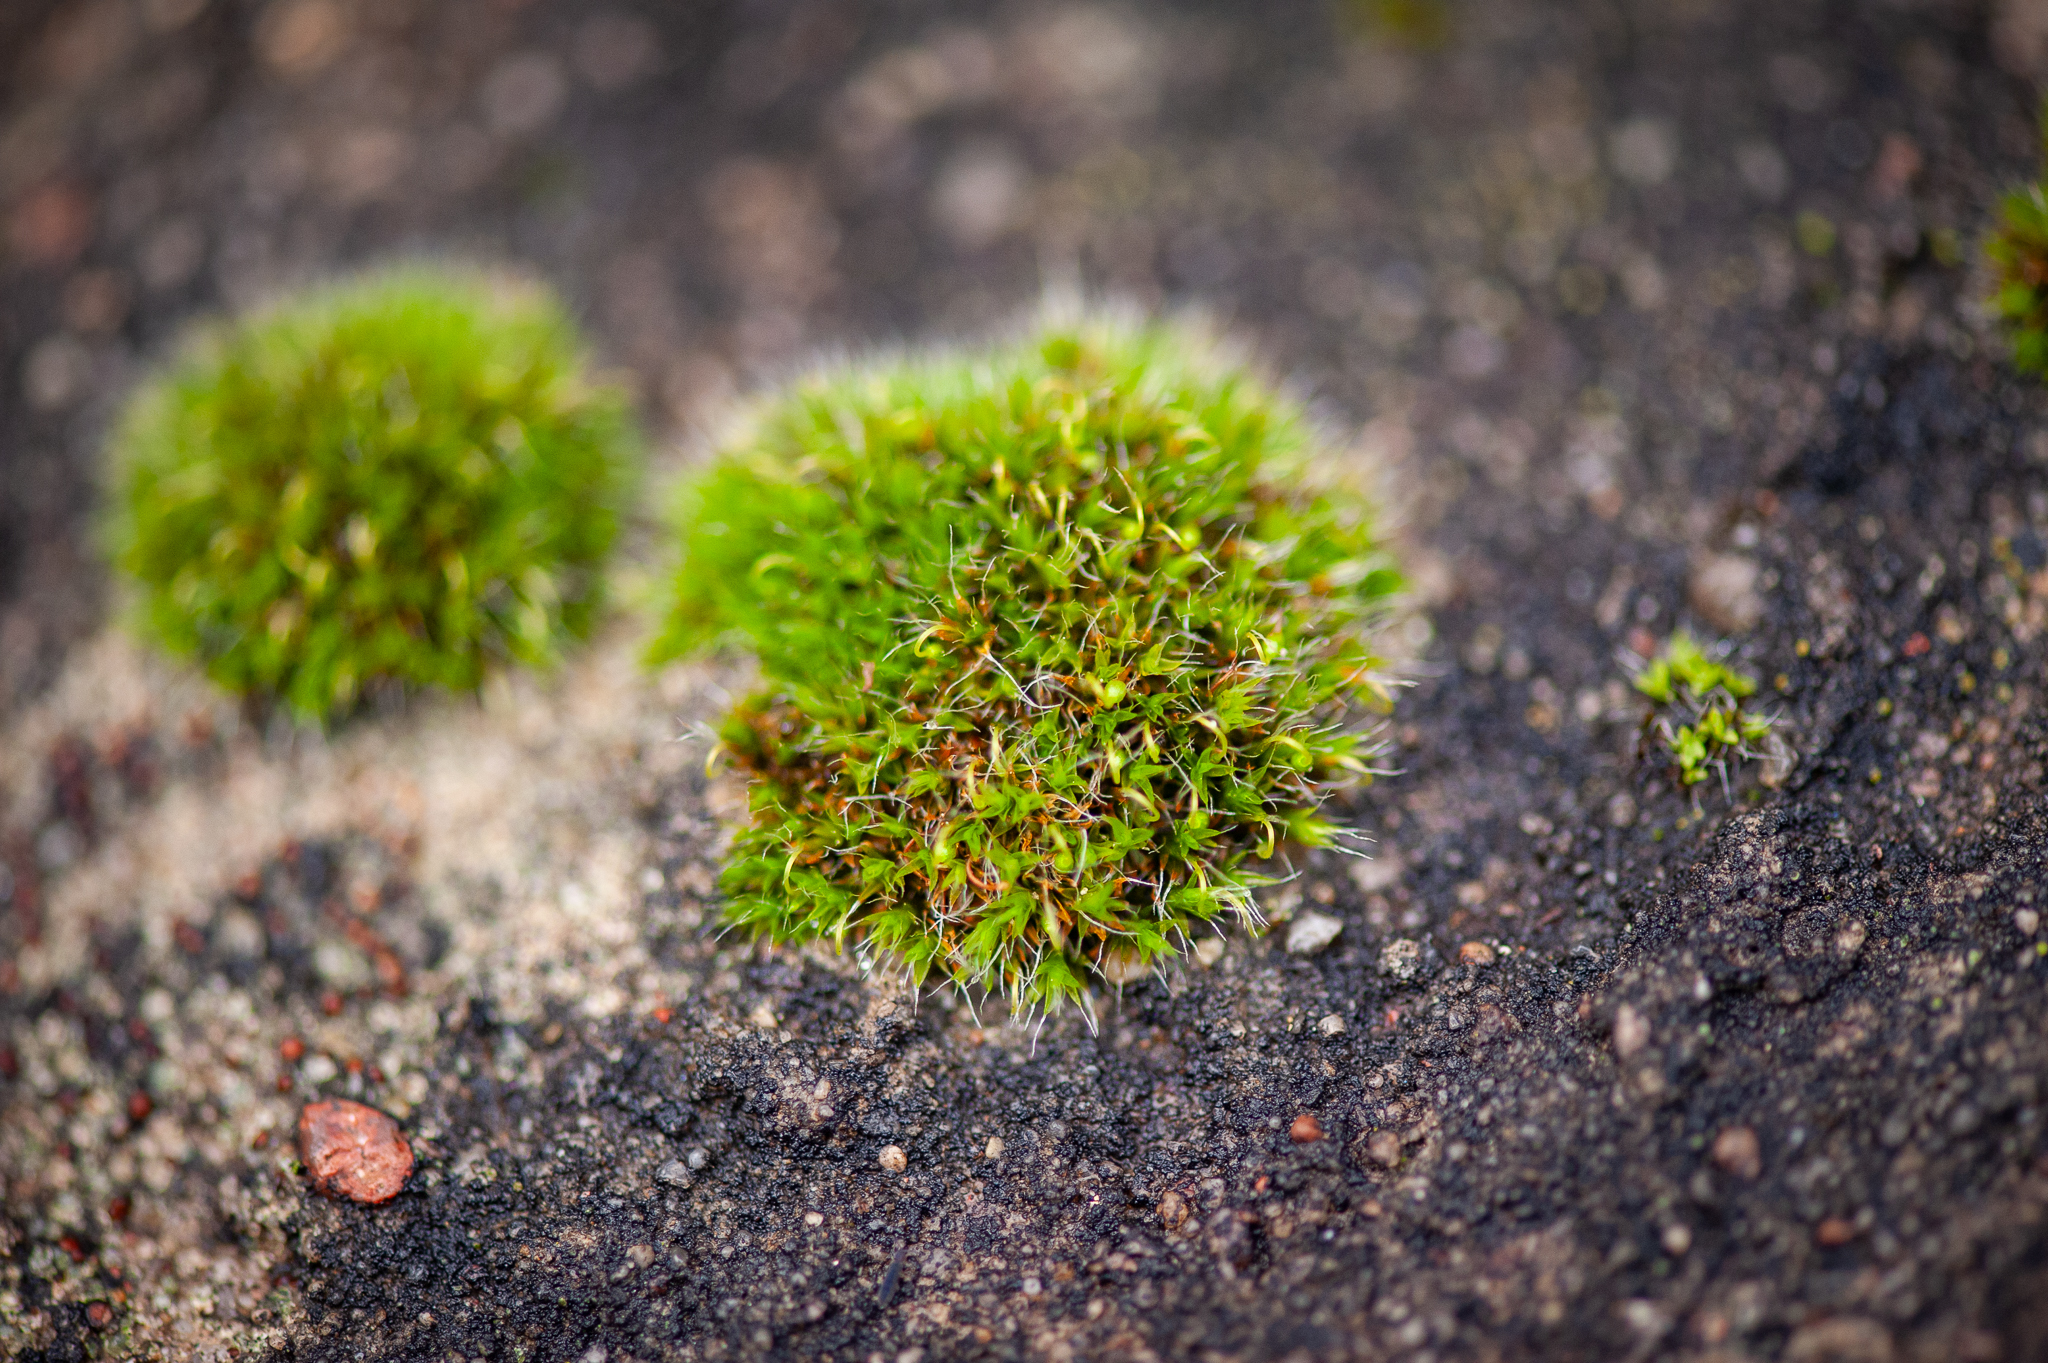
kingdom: Plantae
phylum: Bryophyta
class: Bryopsida
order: Grimmiales
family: Grimmiaceae
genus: Grimmia
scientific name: Grimmia pulvinata
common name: Grey-cushioned grimmia
